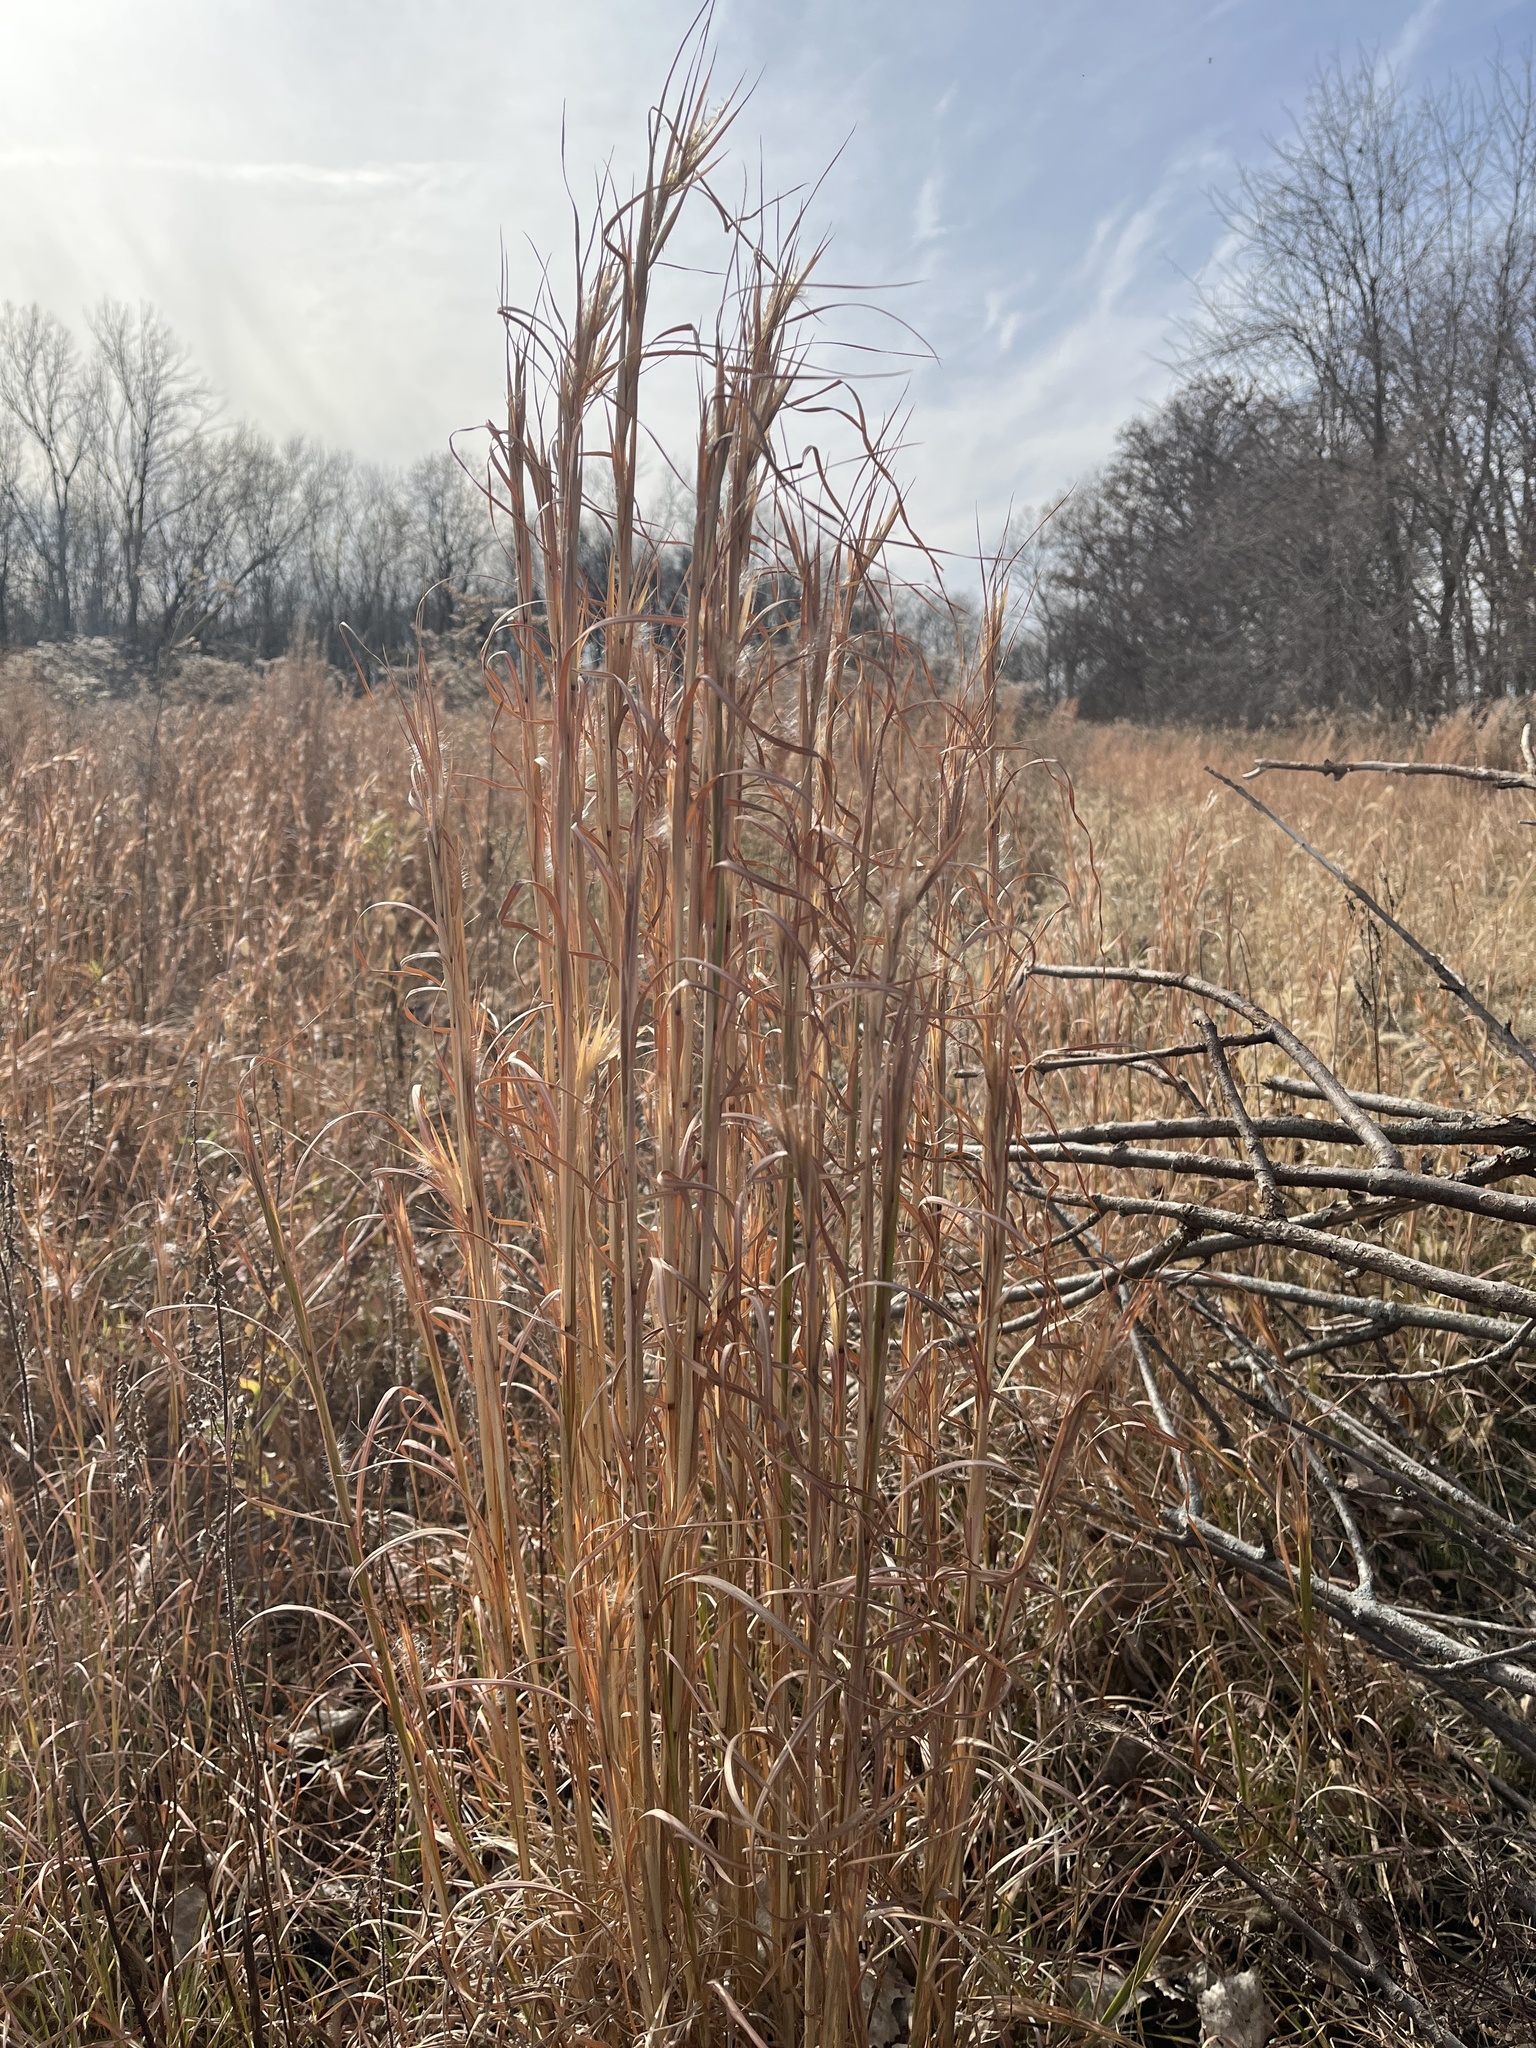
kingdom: Plantae
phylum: Tracheophyta
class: Liliopsida
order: Poales
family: Poaceae
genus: Andropogon
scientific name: Andropogon virginicus
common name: Broomsedge bluestem
